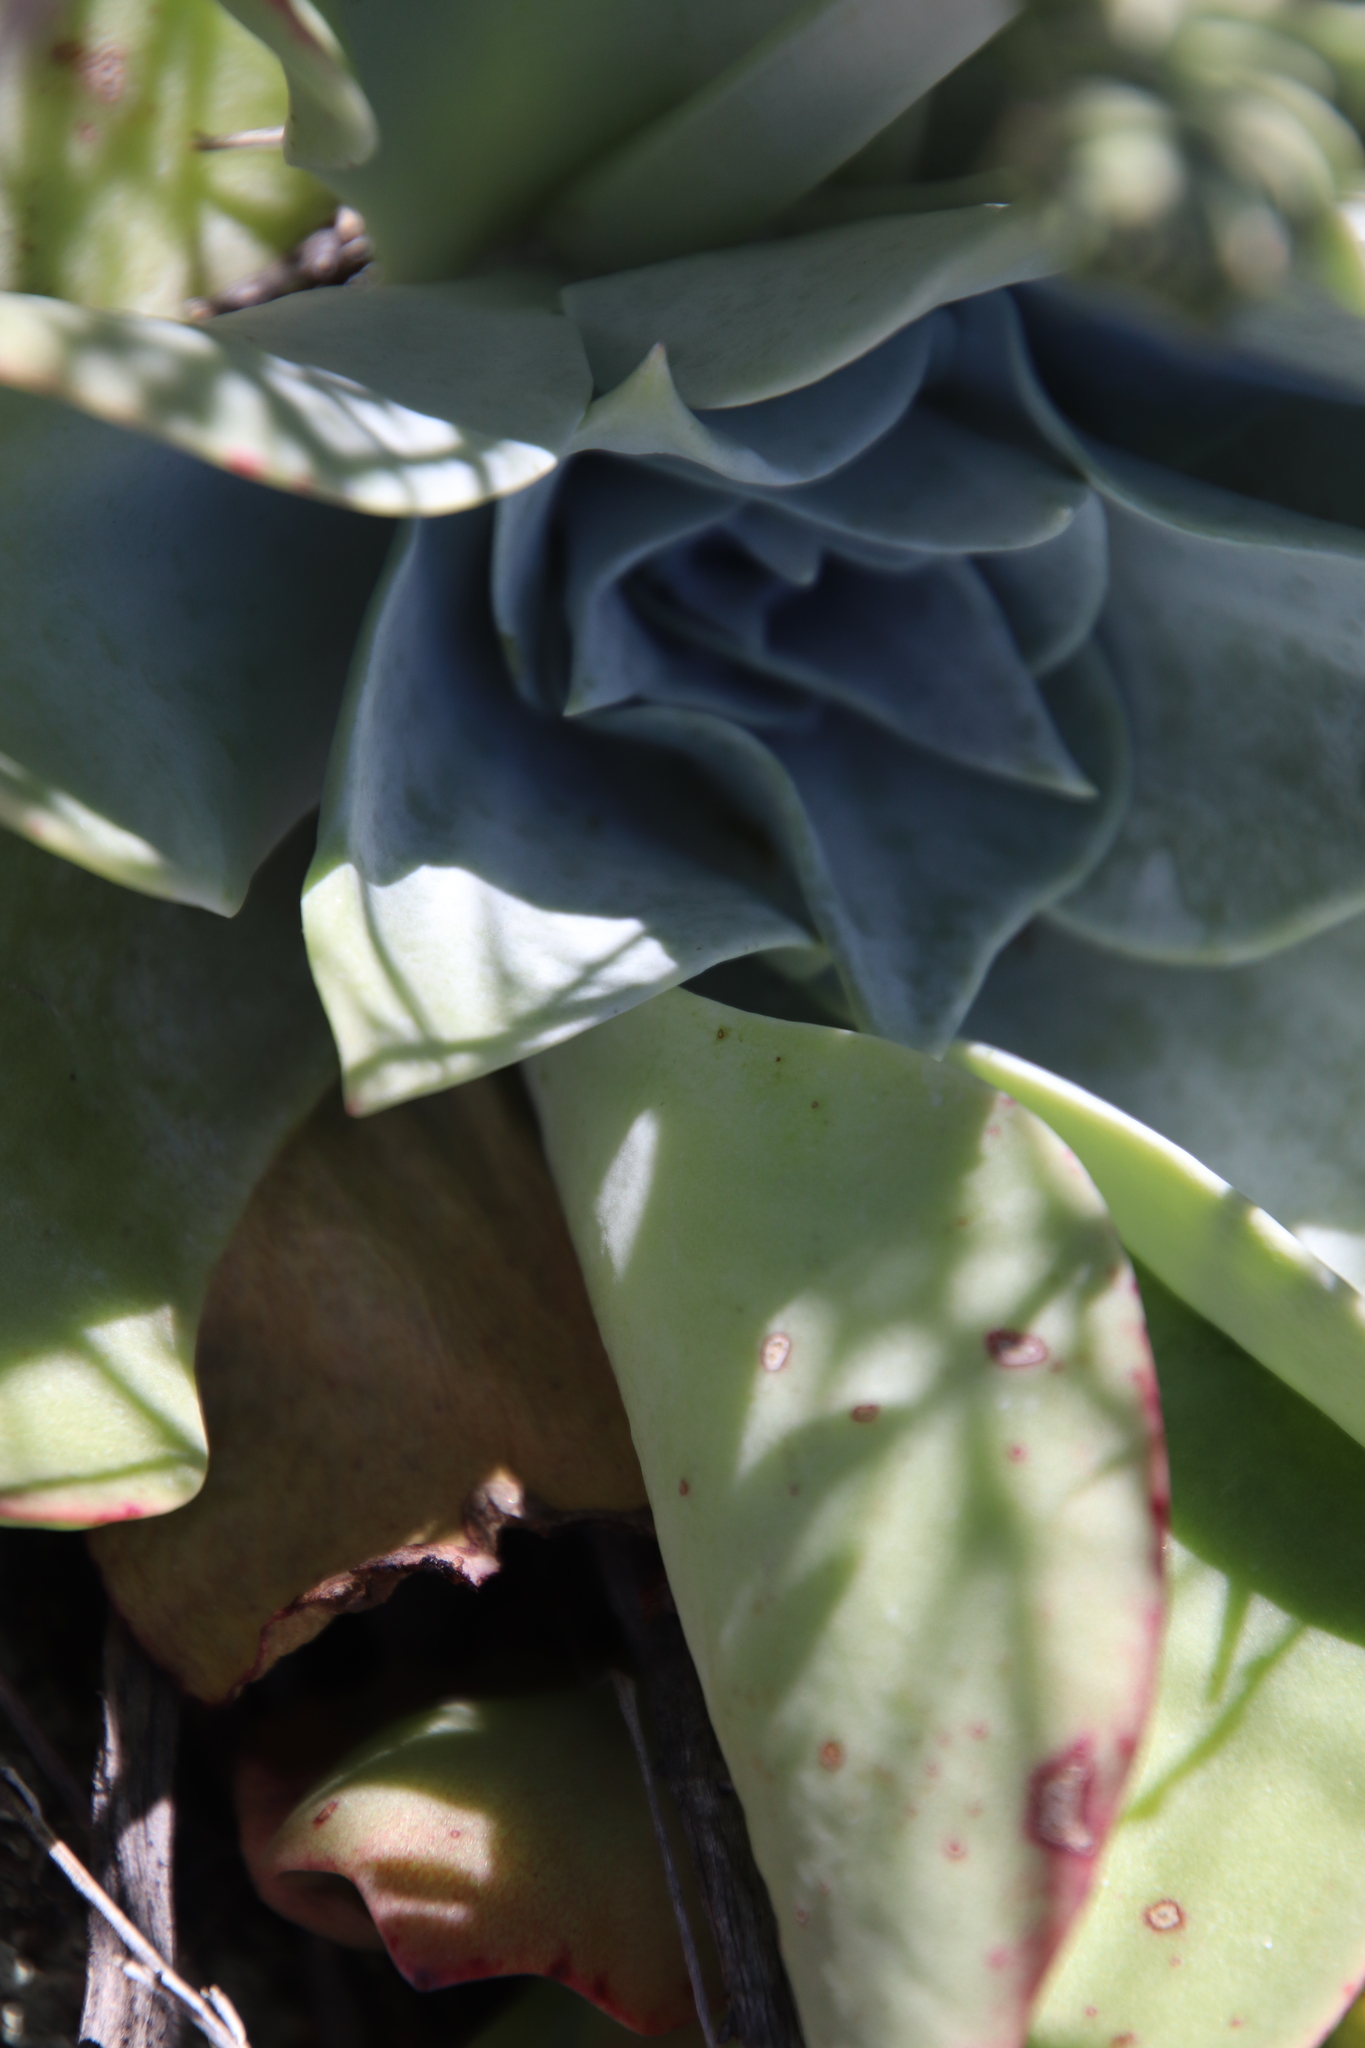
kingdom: Plantae
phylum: Tracheophyta
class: Magnoliopsida
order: Saxifragales
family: Crassulaceae
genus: Dudleya
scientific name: Dudleya pulverulenta
